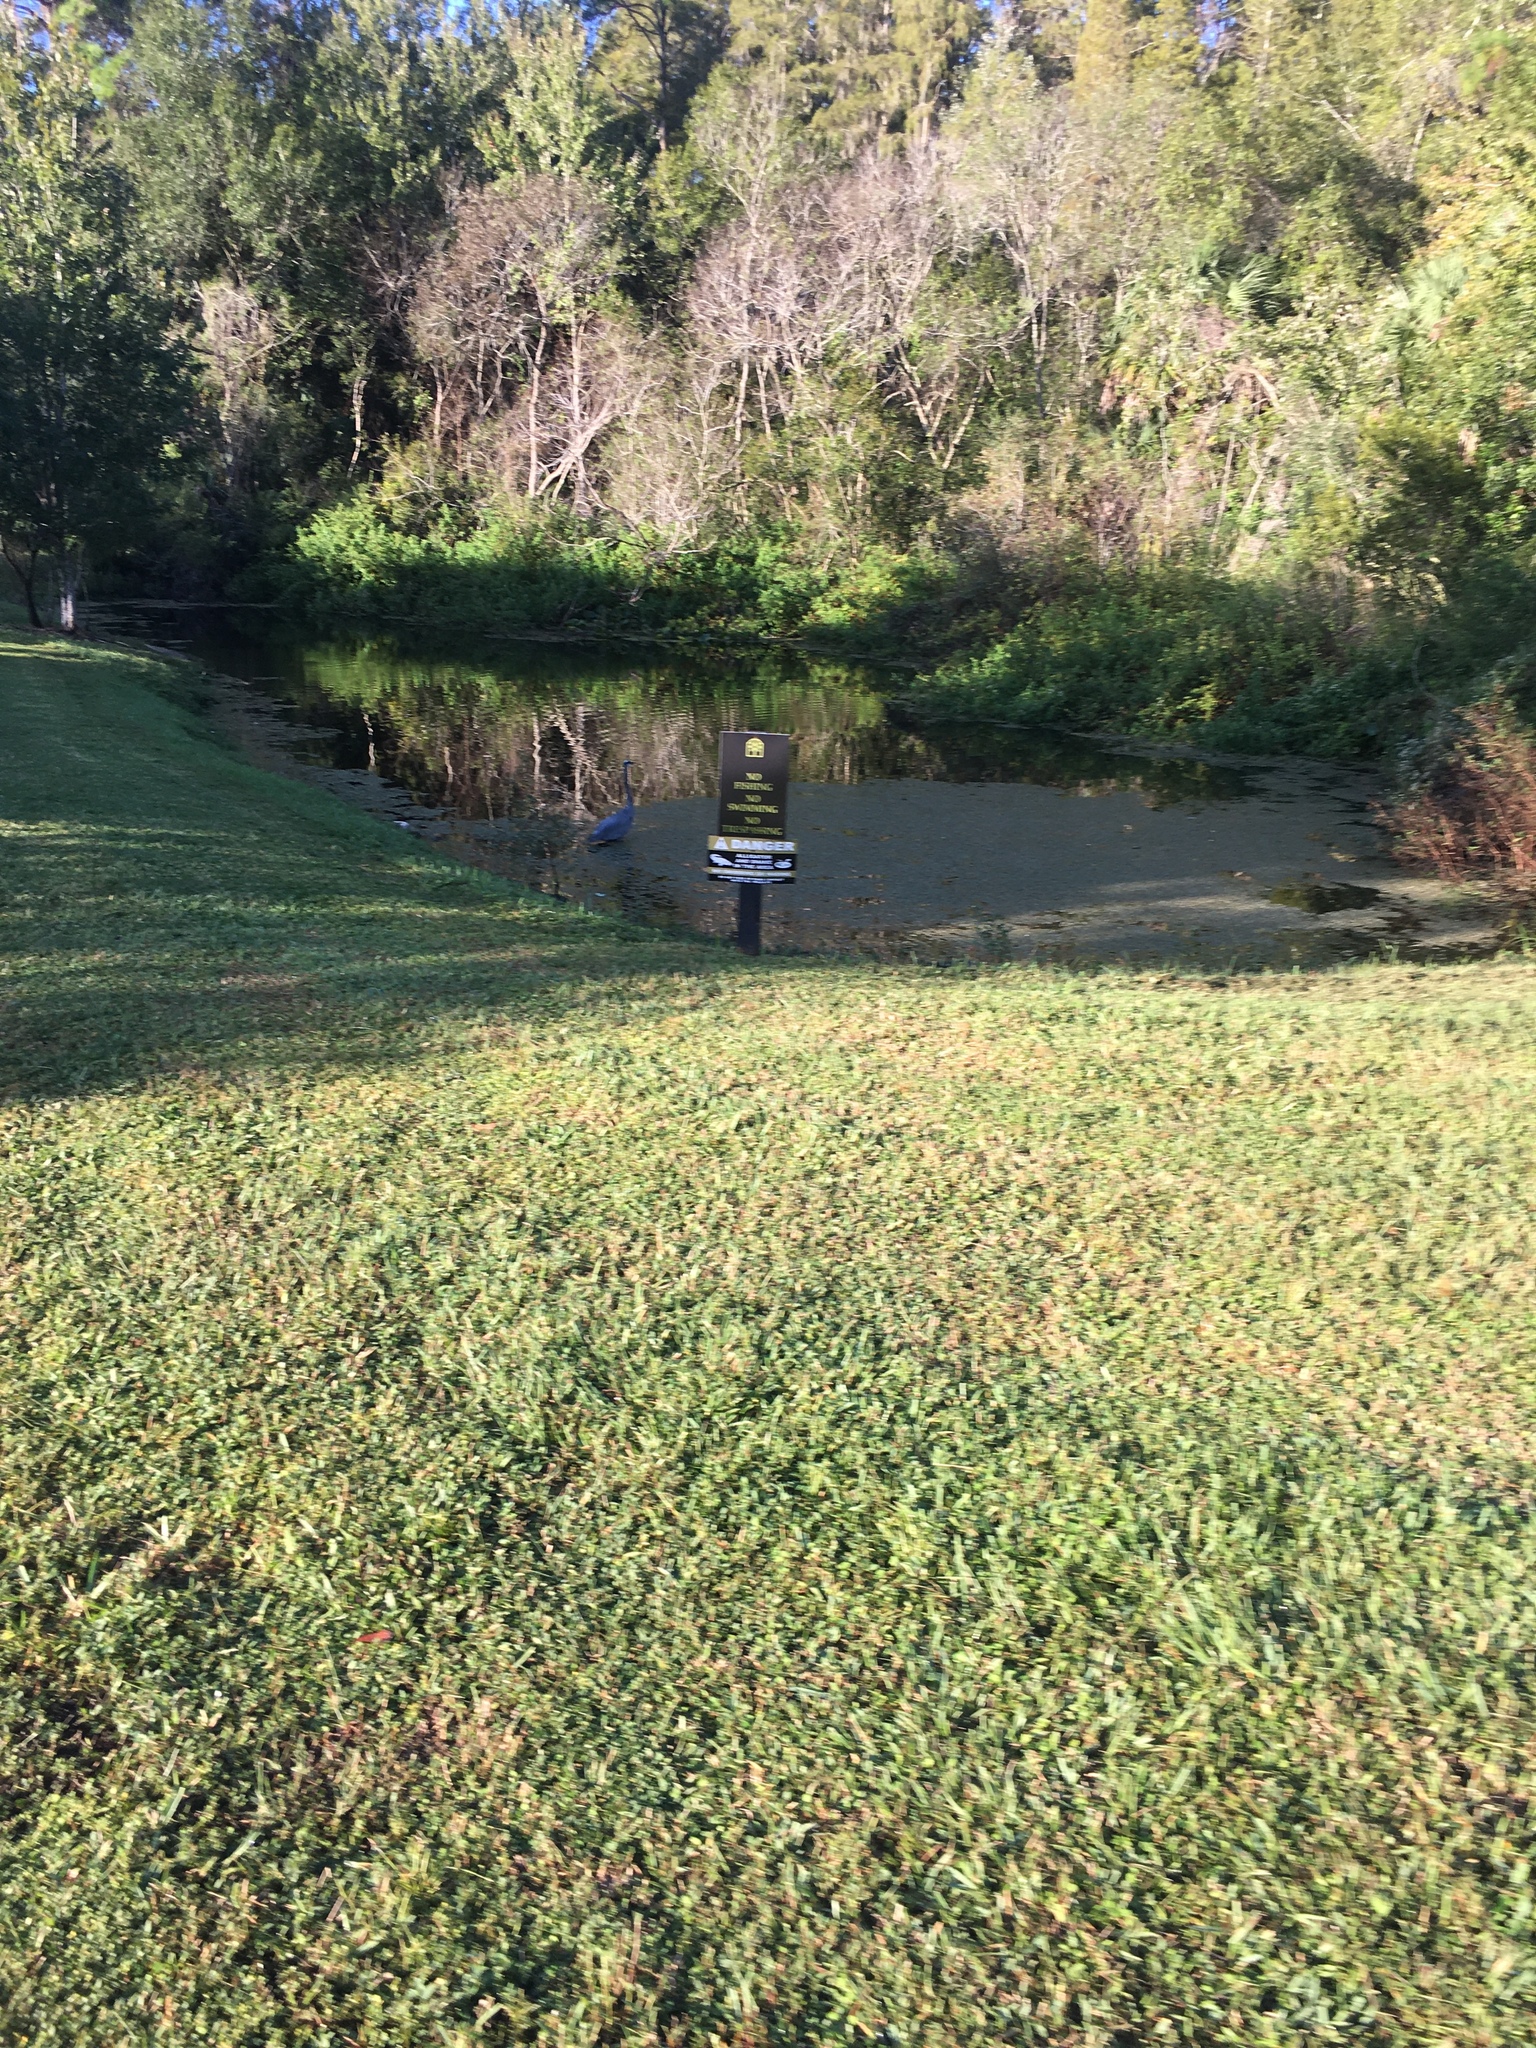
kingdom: Animalia
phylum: Chordata
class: Aves
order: Pelecaniformes
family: Ardeidae
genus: Ardea
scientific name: Ardea herodias
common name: Great blue heron
